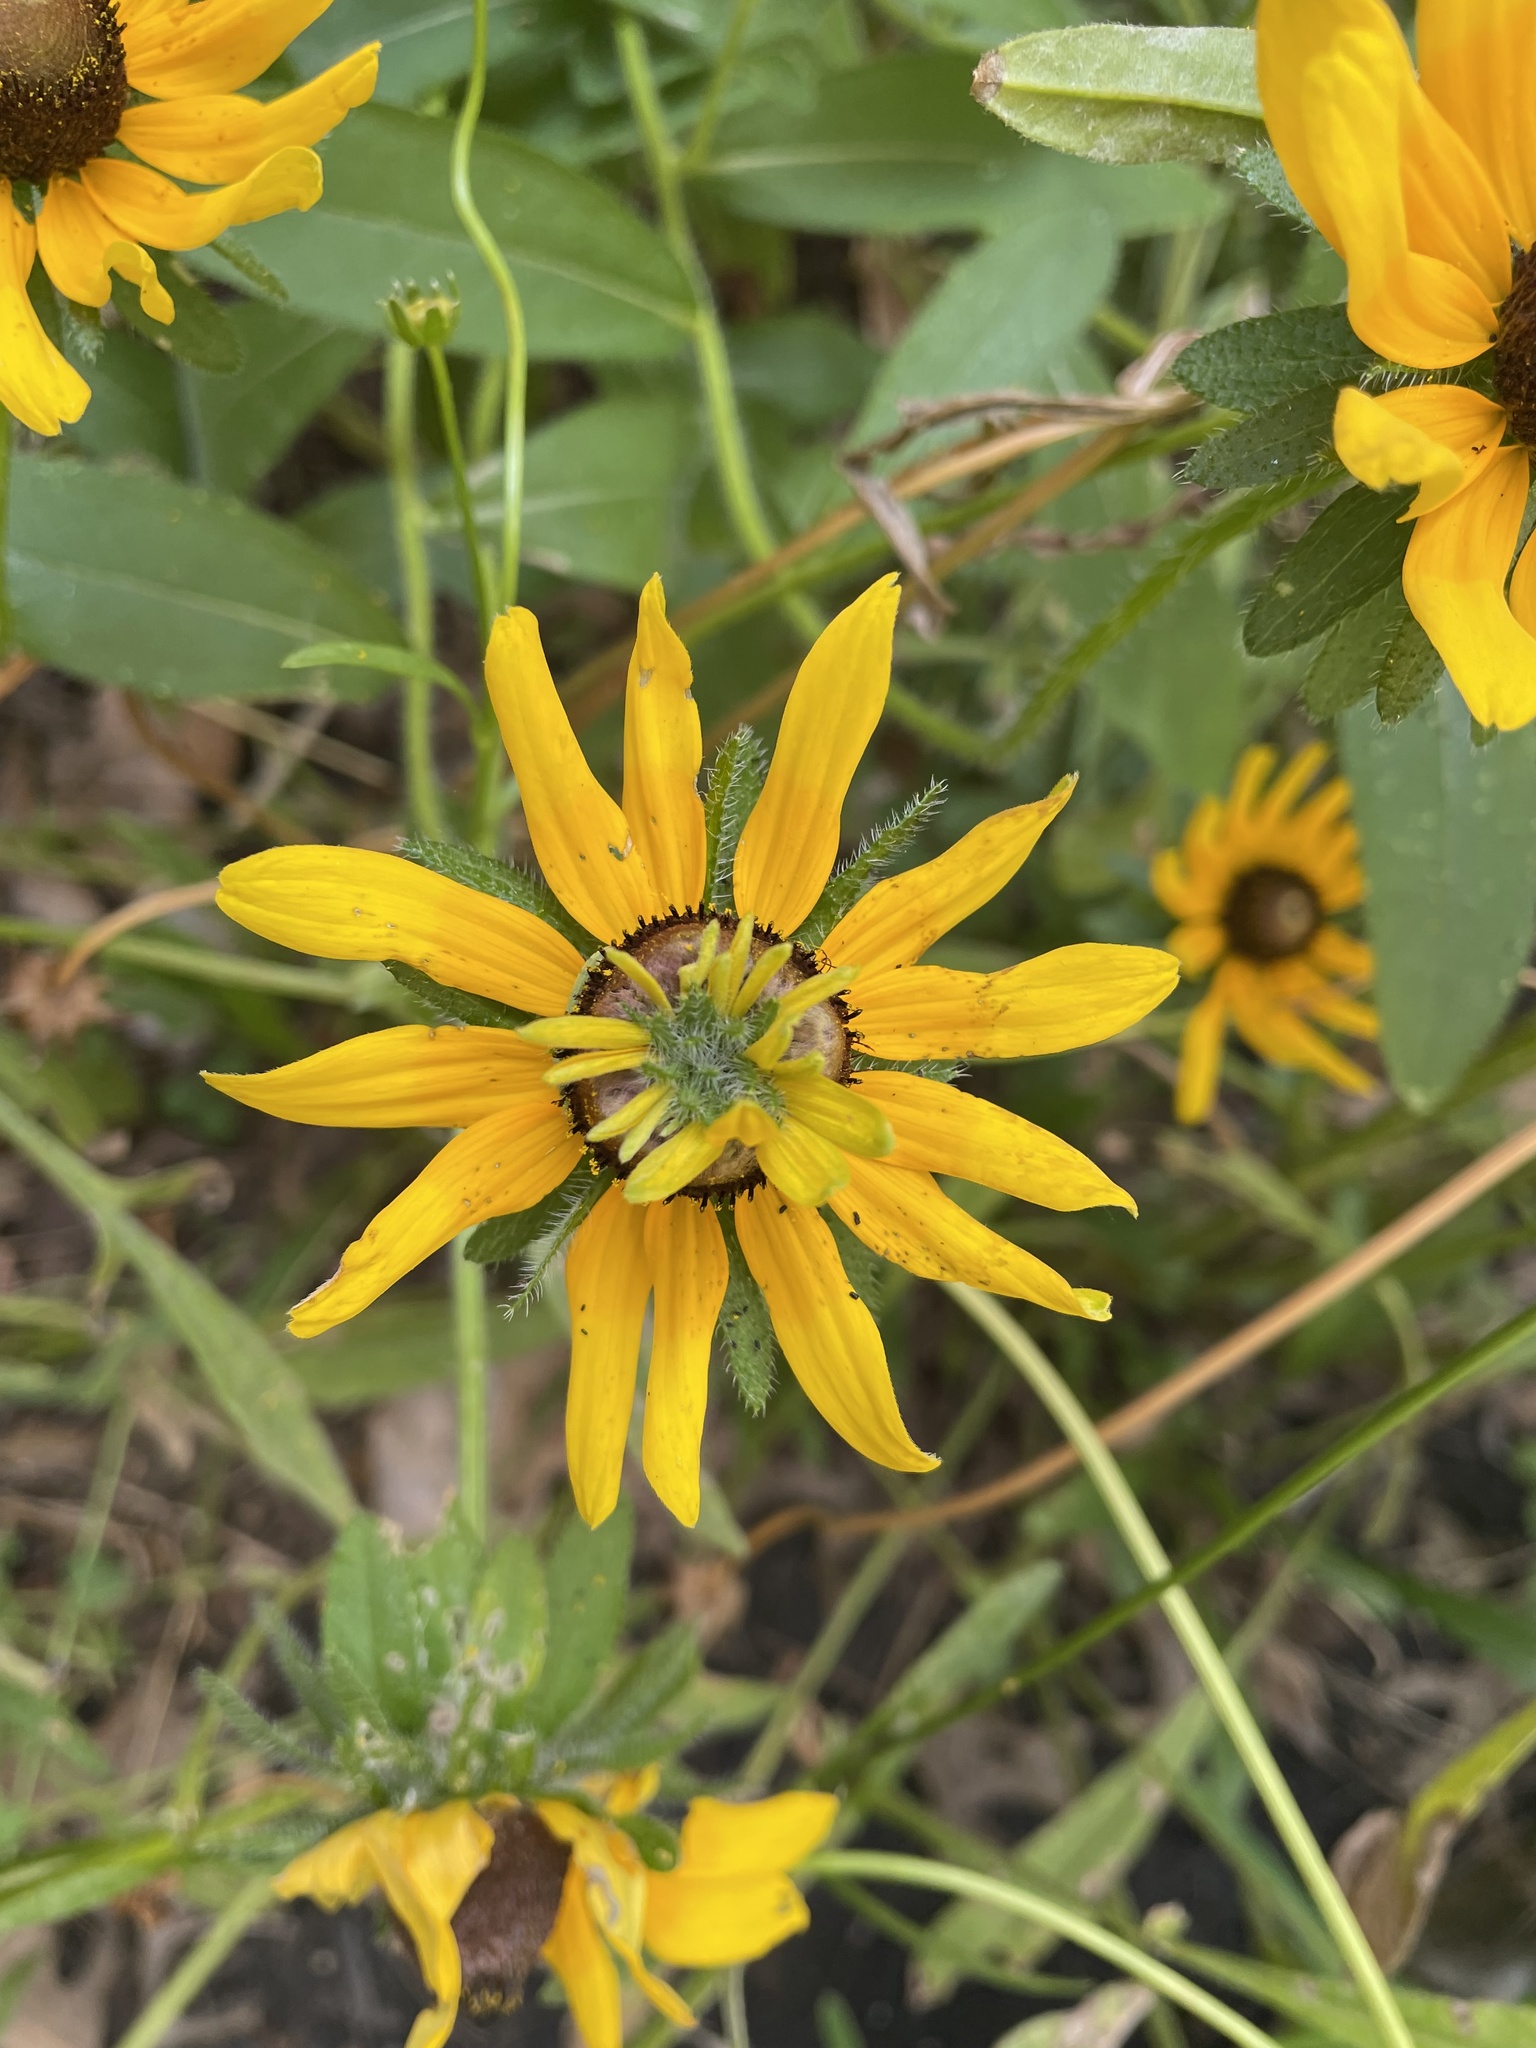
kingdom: Plantae
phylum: Tracheophyta
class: Magnoliopsida
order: Asterales
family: Asteraceae
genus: Rudbeckia
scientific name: Rudbeckia hirta
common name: Black-eyed-susan
